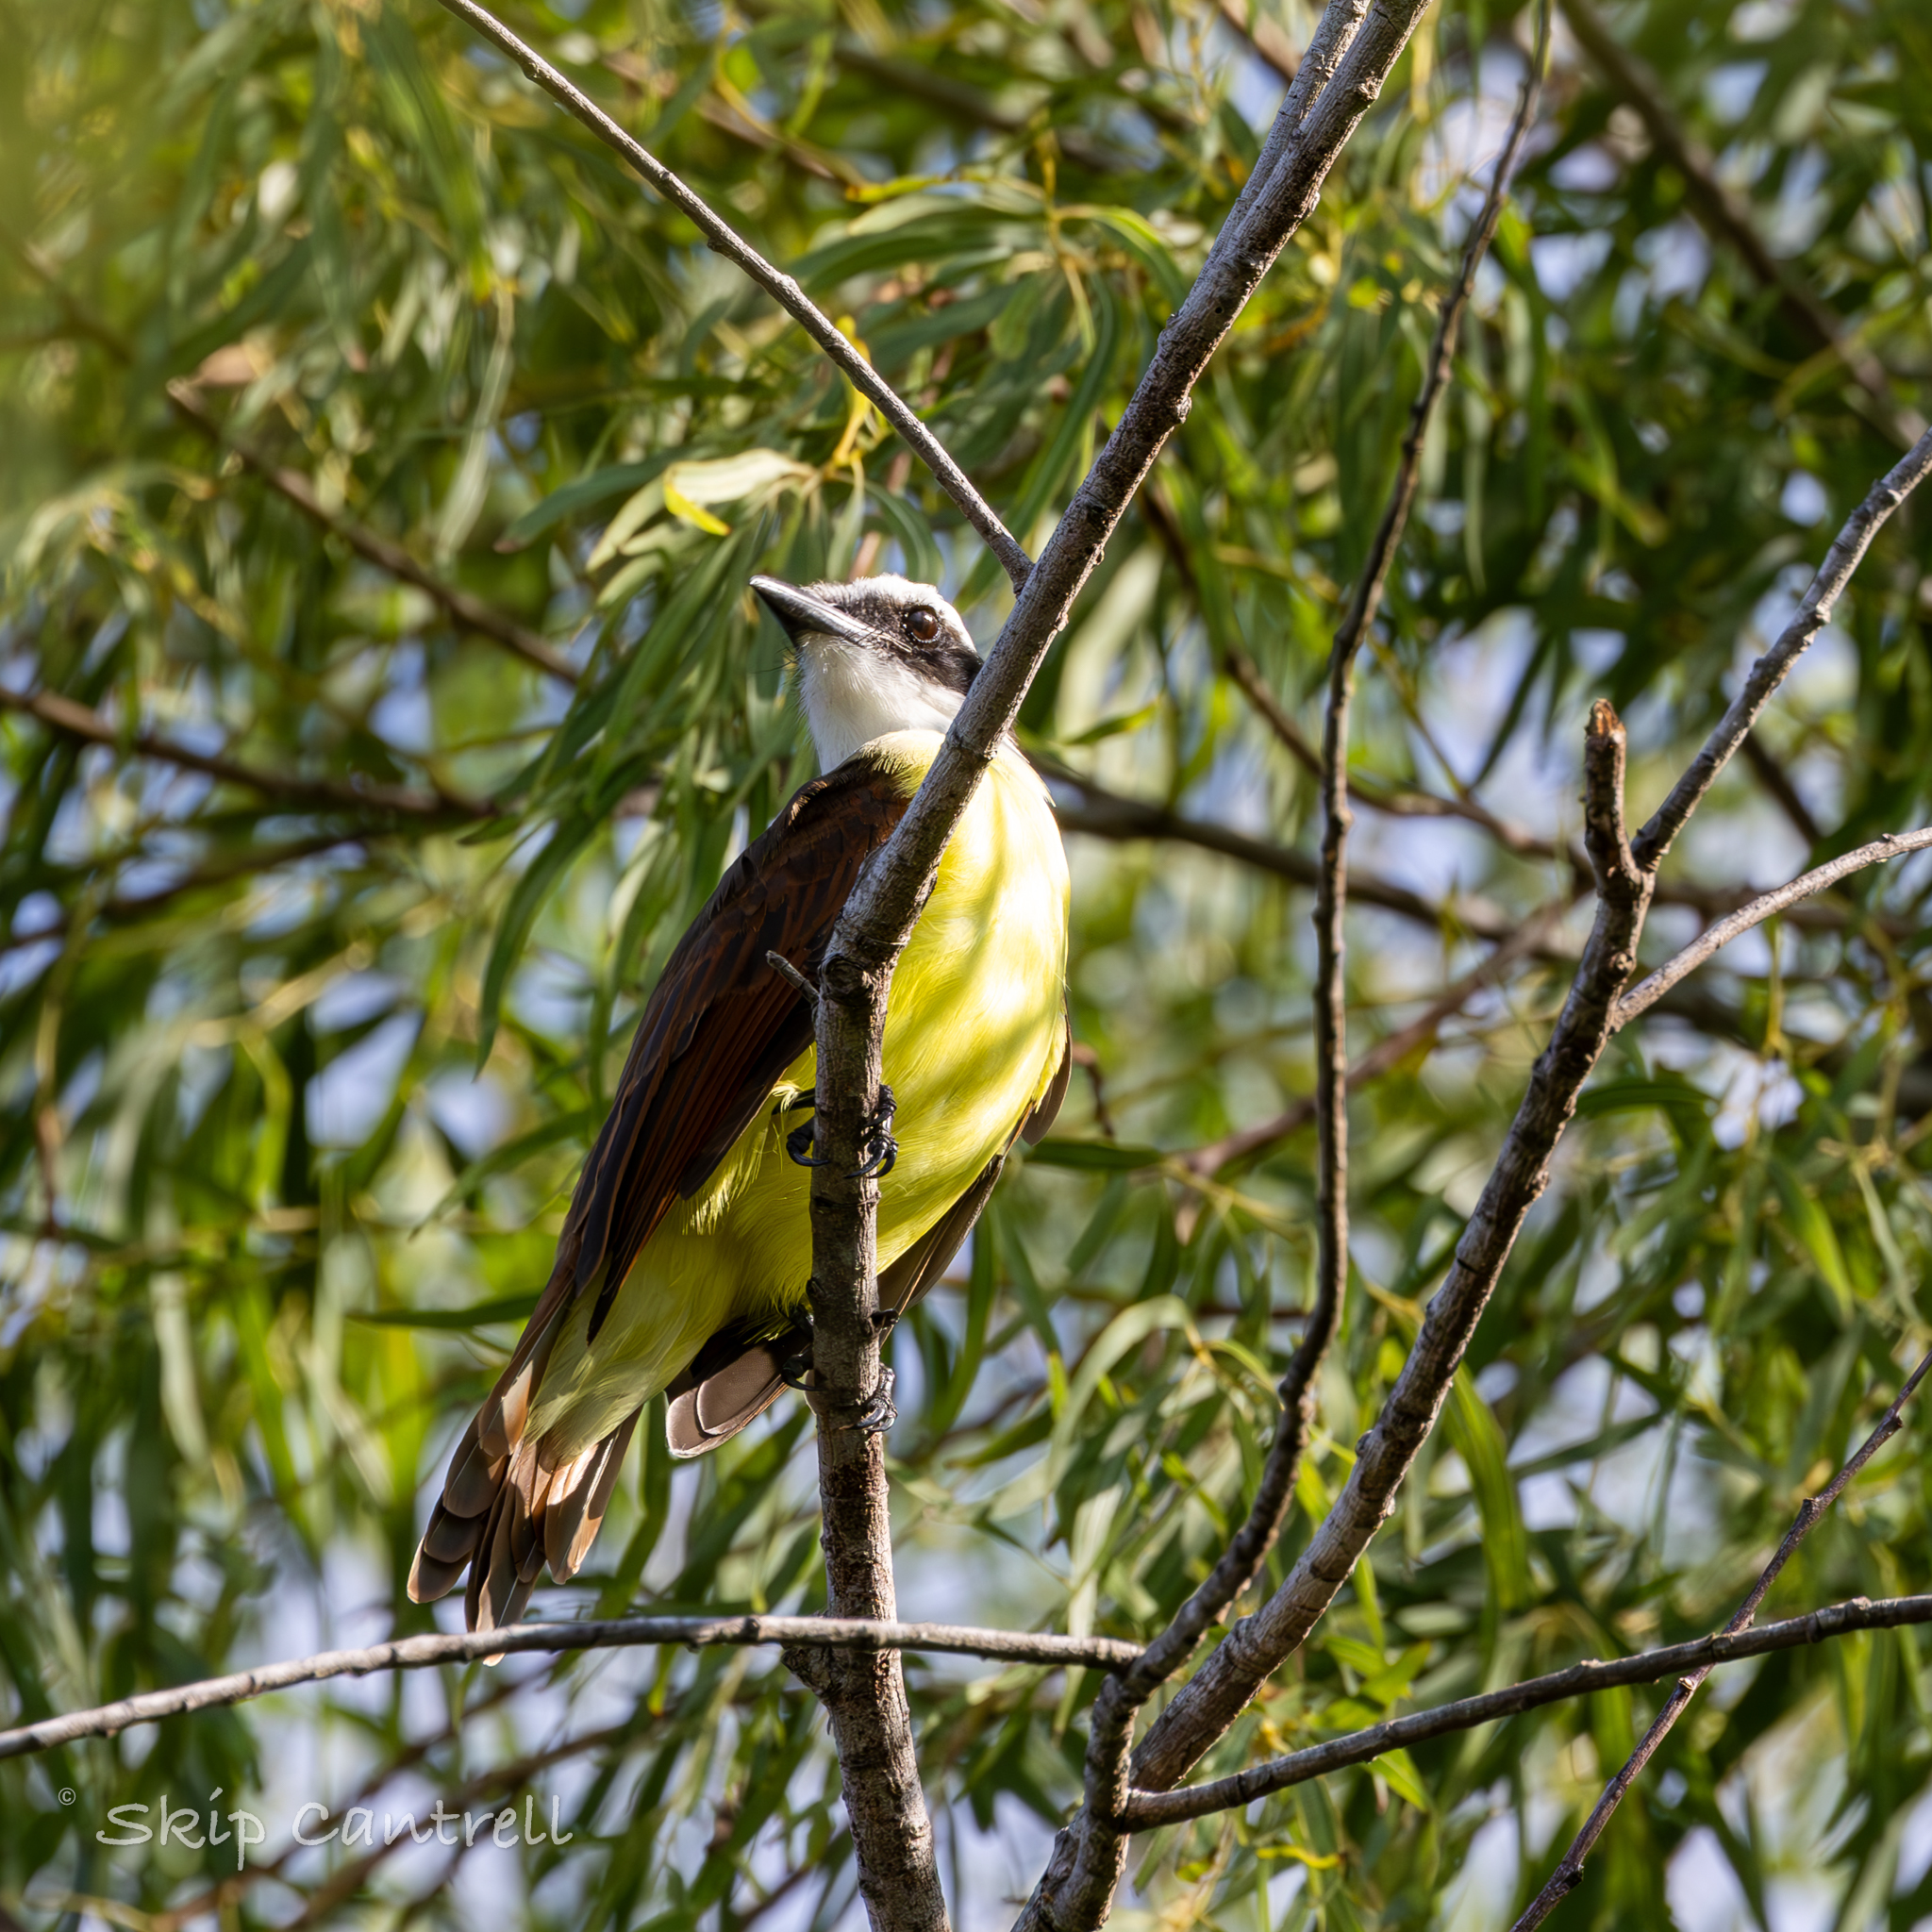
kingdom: Animalia
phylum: Chordata
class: Aves
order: Passeriformes
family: Tyrannidae
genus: Pitangus
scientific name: Pitangus sulphuratus
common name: Great kiskadee
